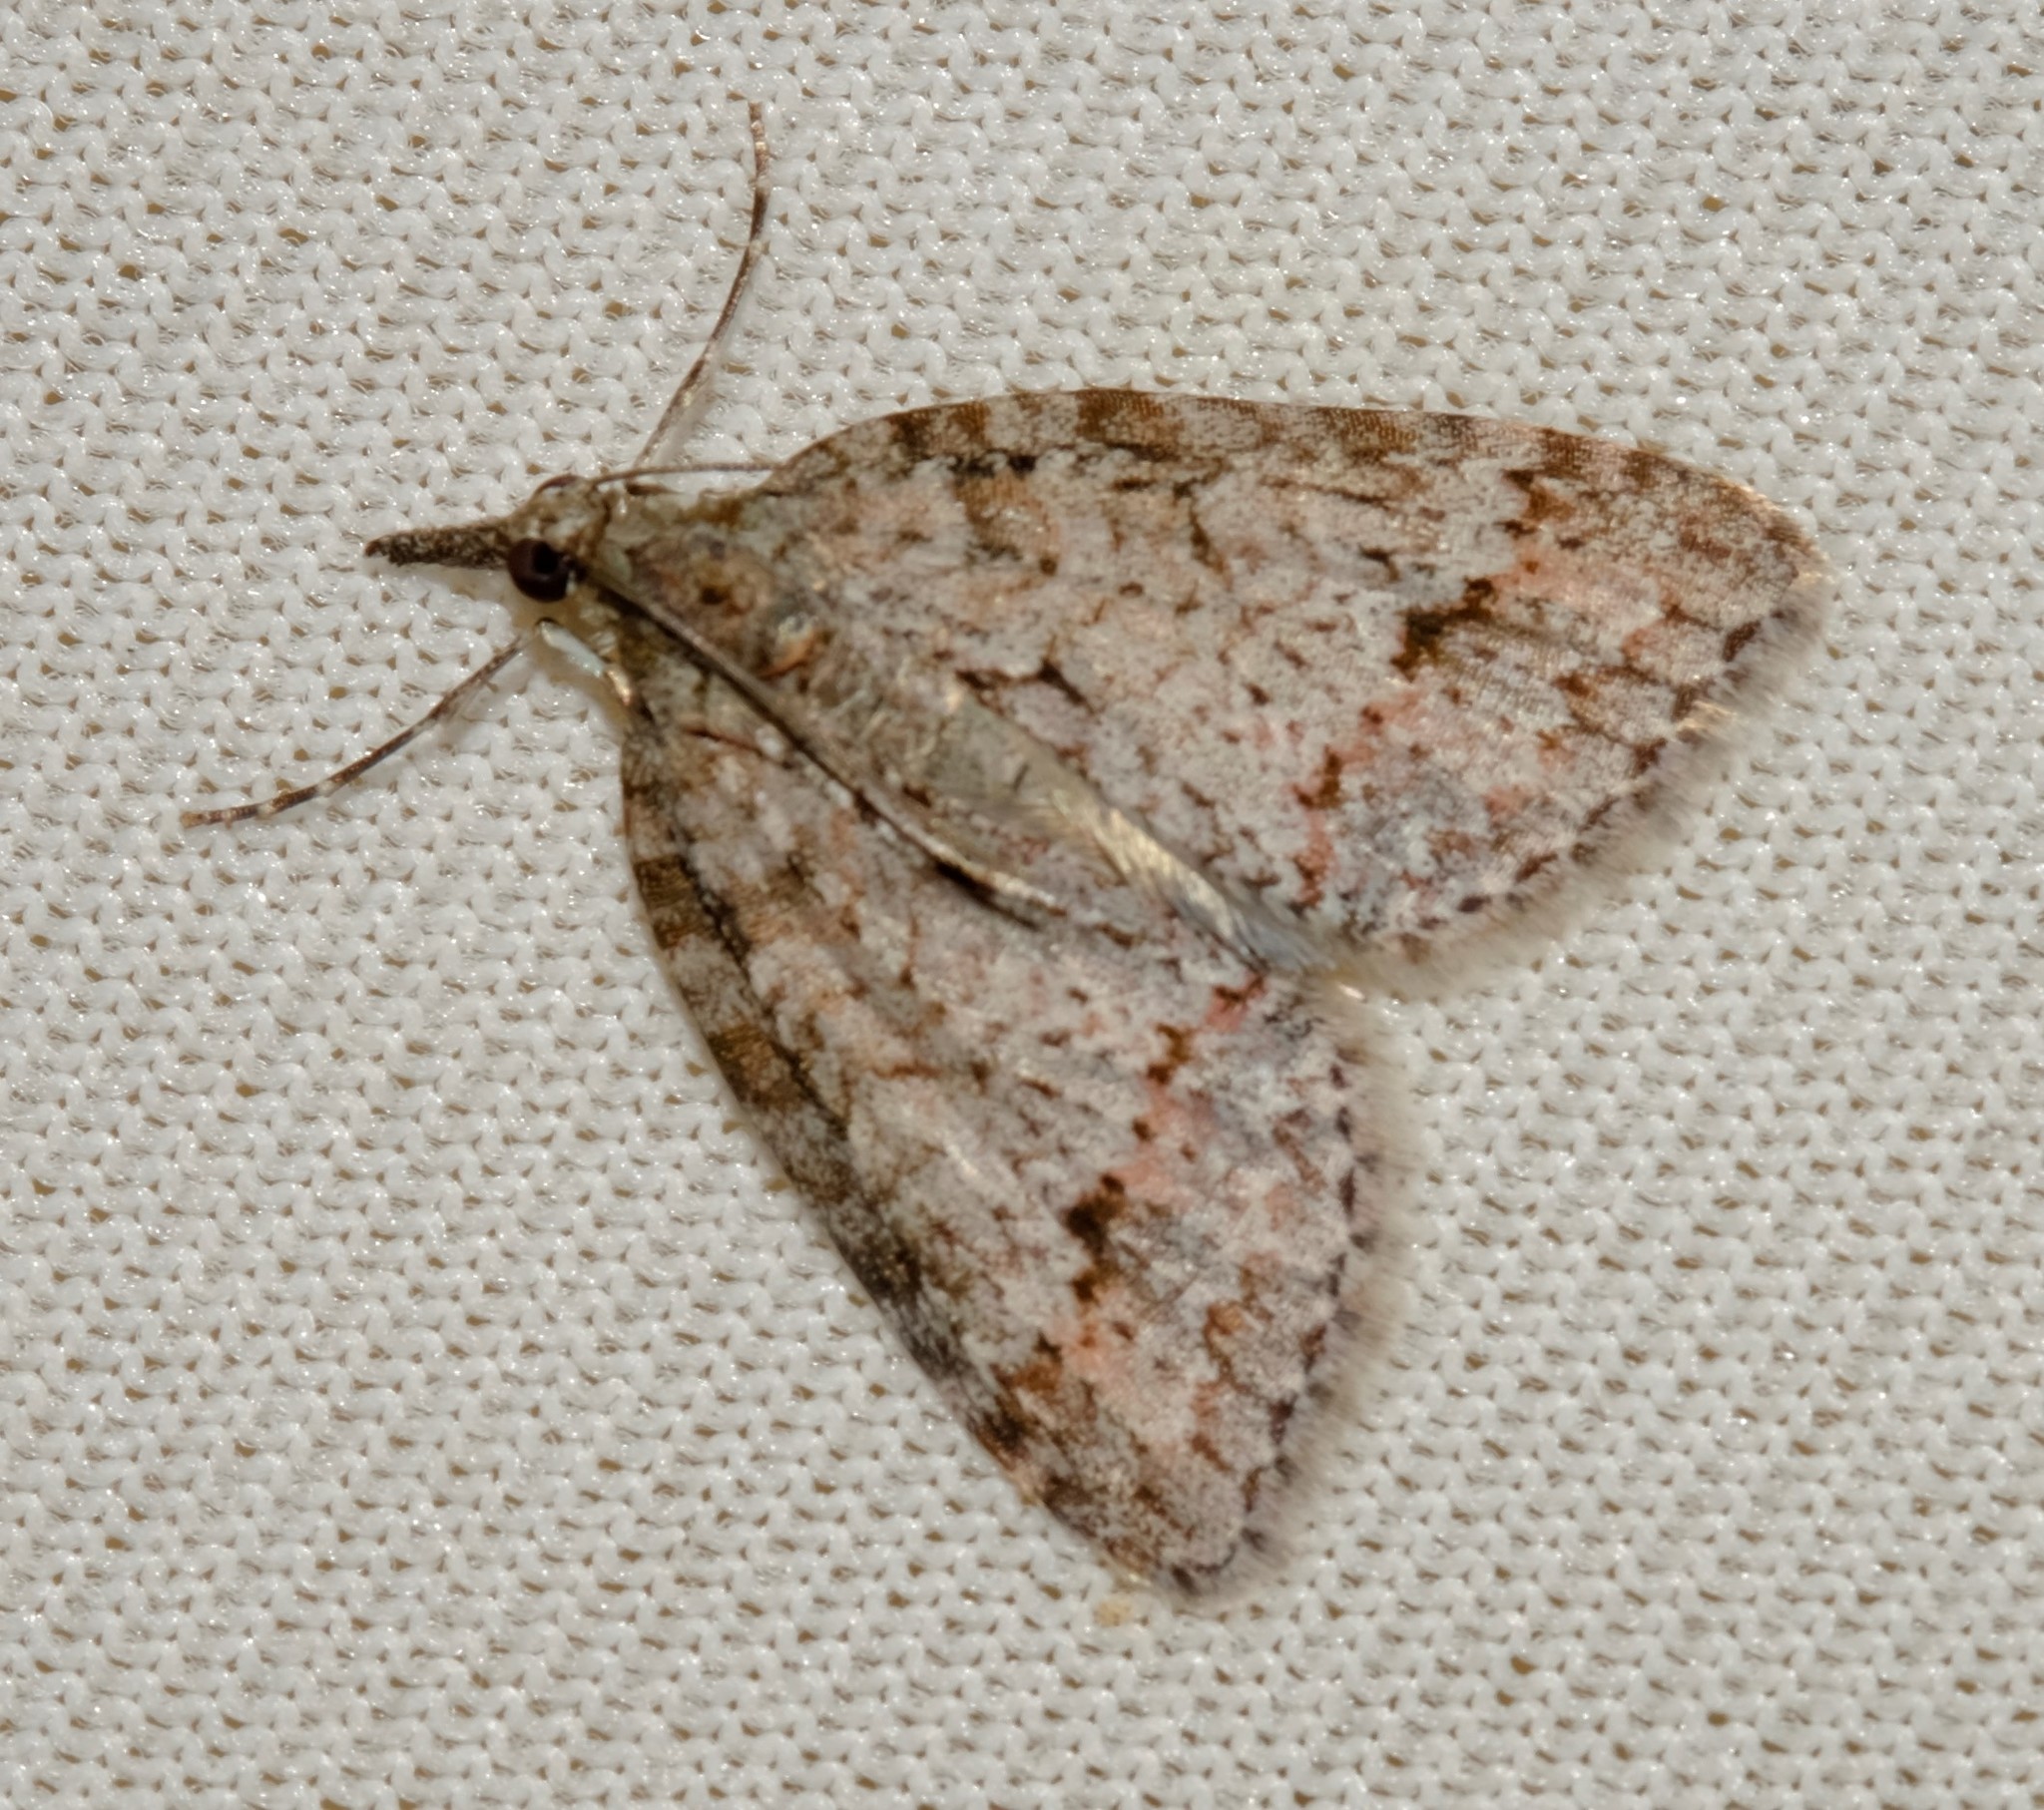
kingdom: Animalia
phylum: Arthropoda
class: Insecta
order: Lepidoptera
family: Geometridae
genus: Microdes
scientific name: Microdes villosata
